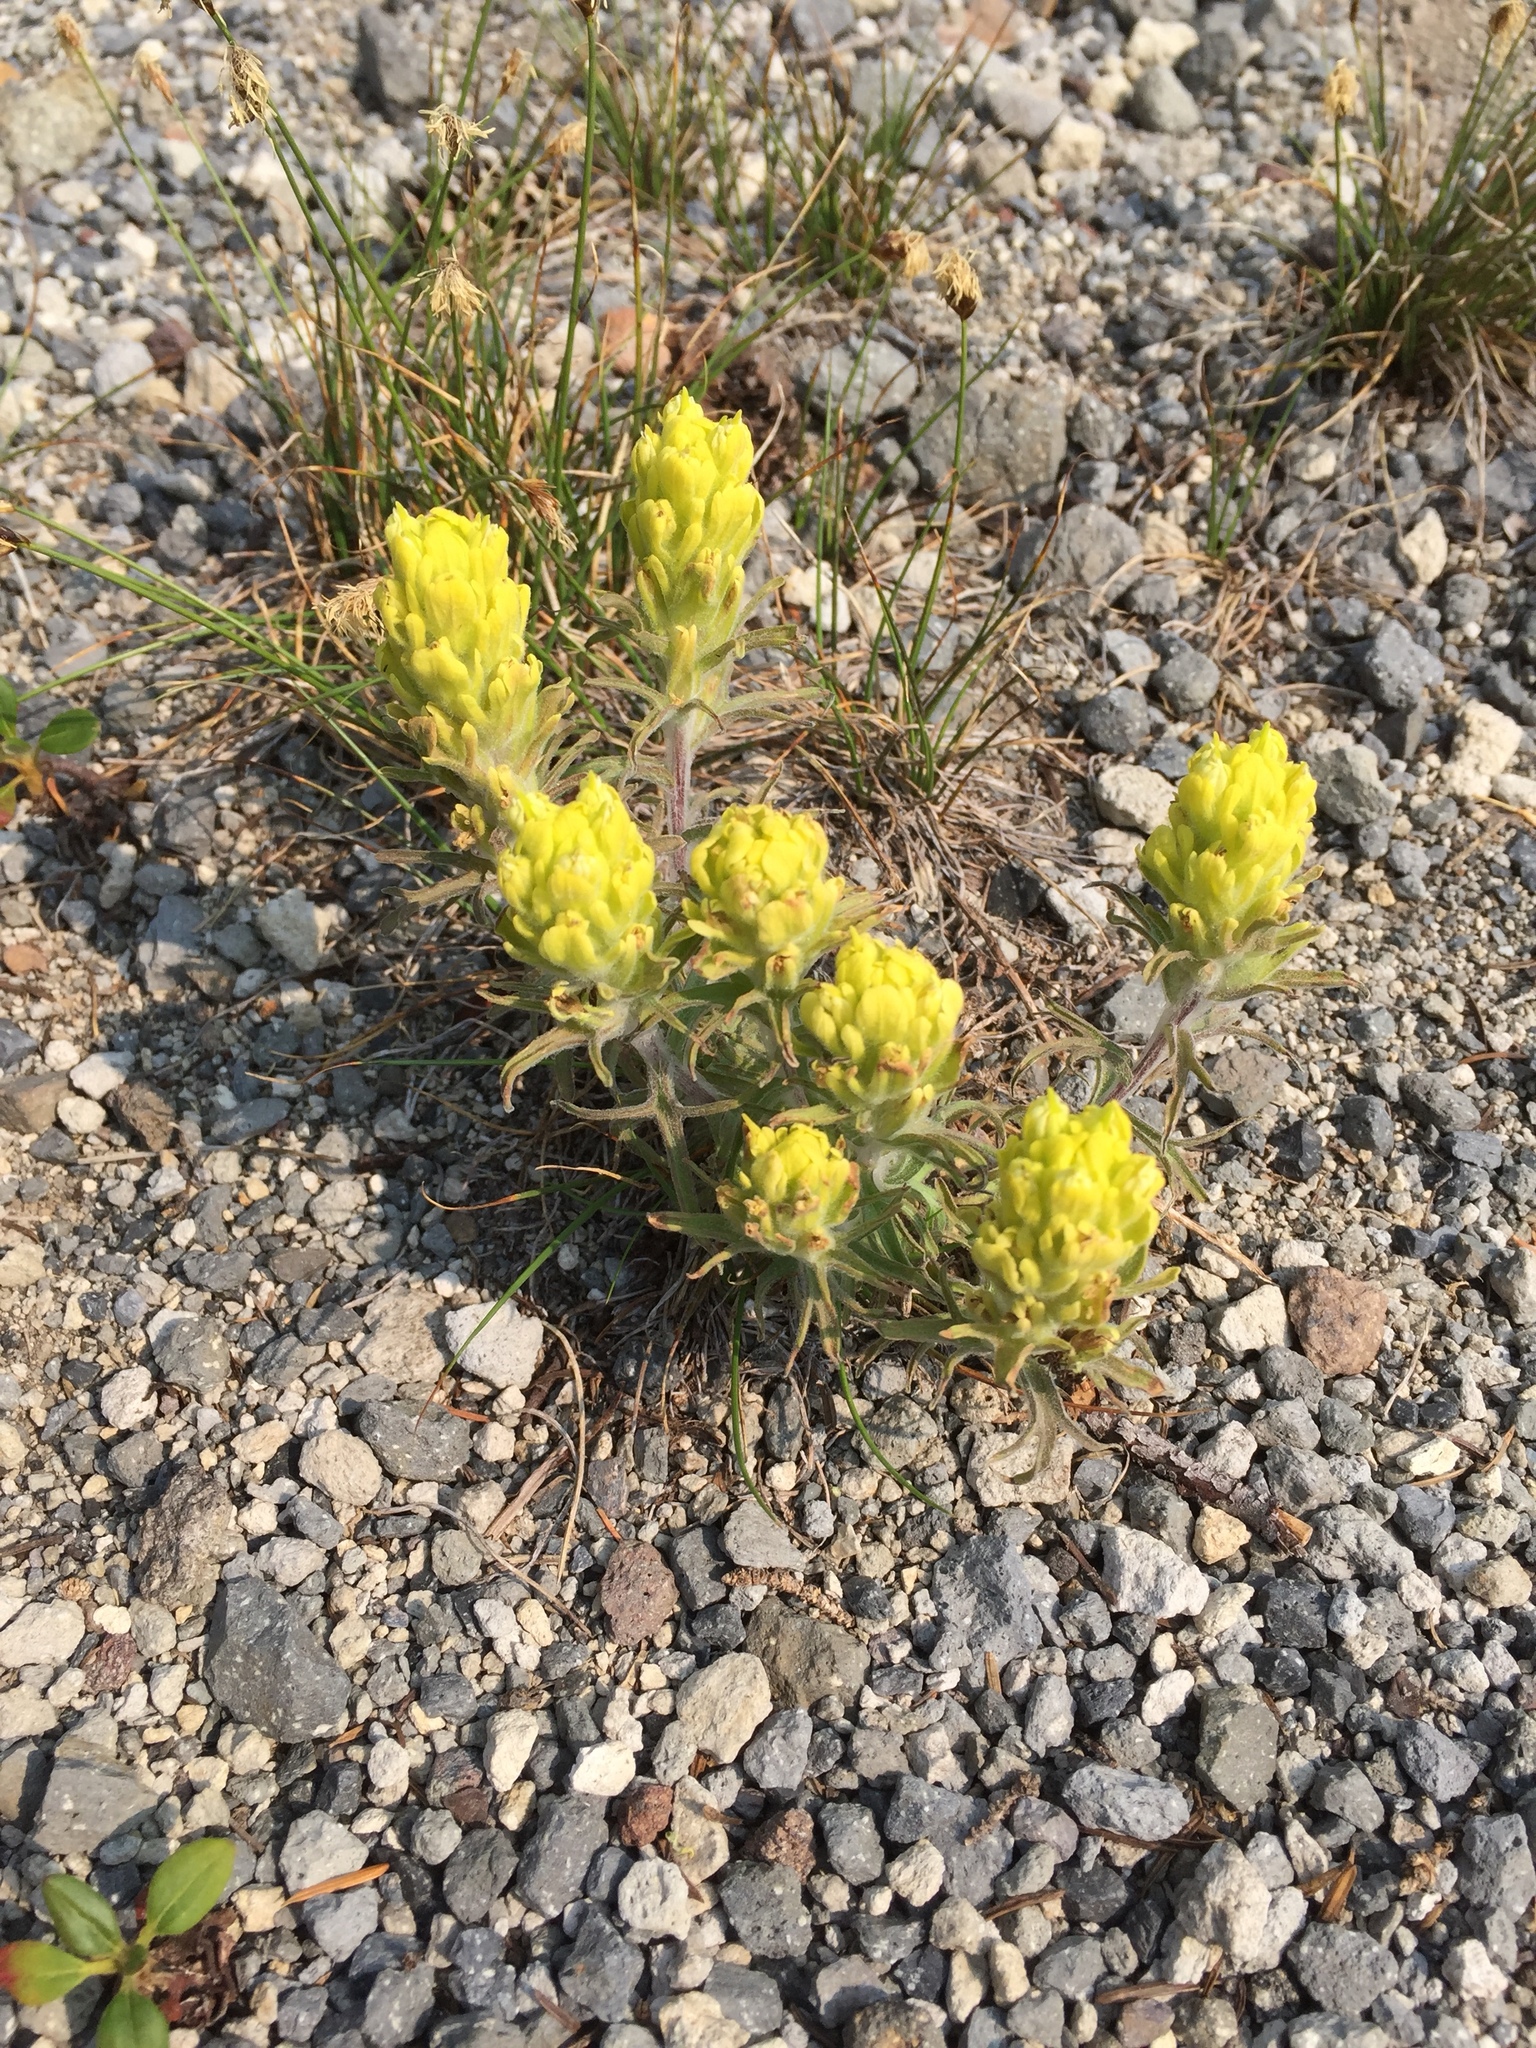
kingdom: Plantae
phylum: Tracheophyta
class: Magnoliopsida
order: Lamiales
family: Orobanchaceae
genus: Castilleja
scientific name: Castilleja arachnoidea
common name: Cobwebby indian paintbrush
